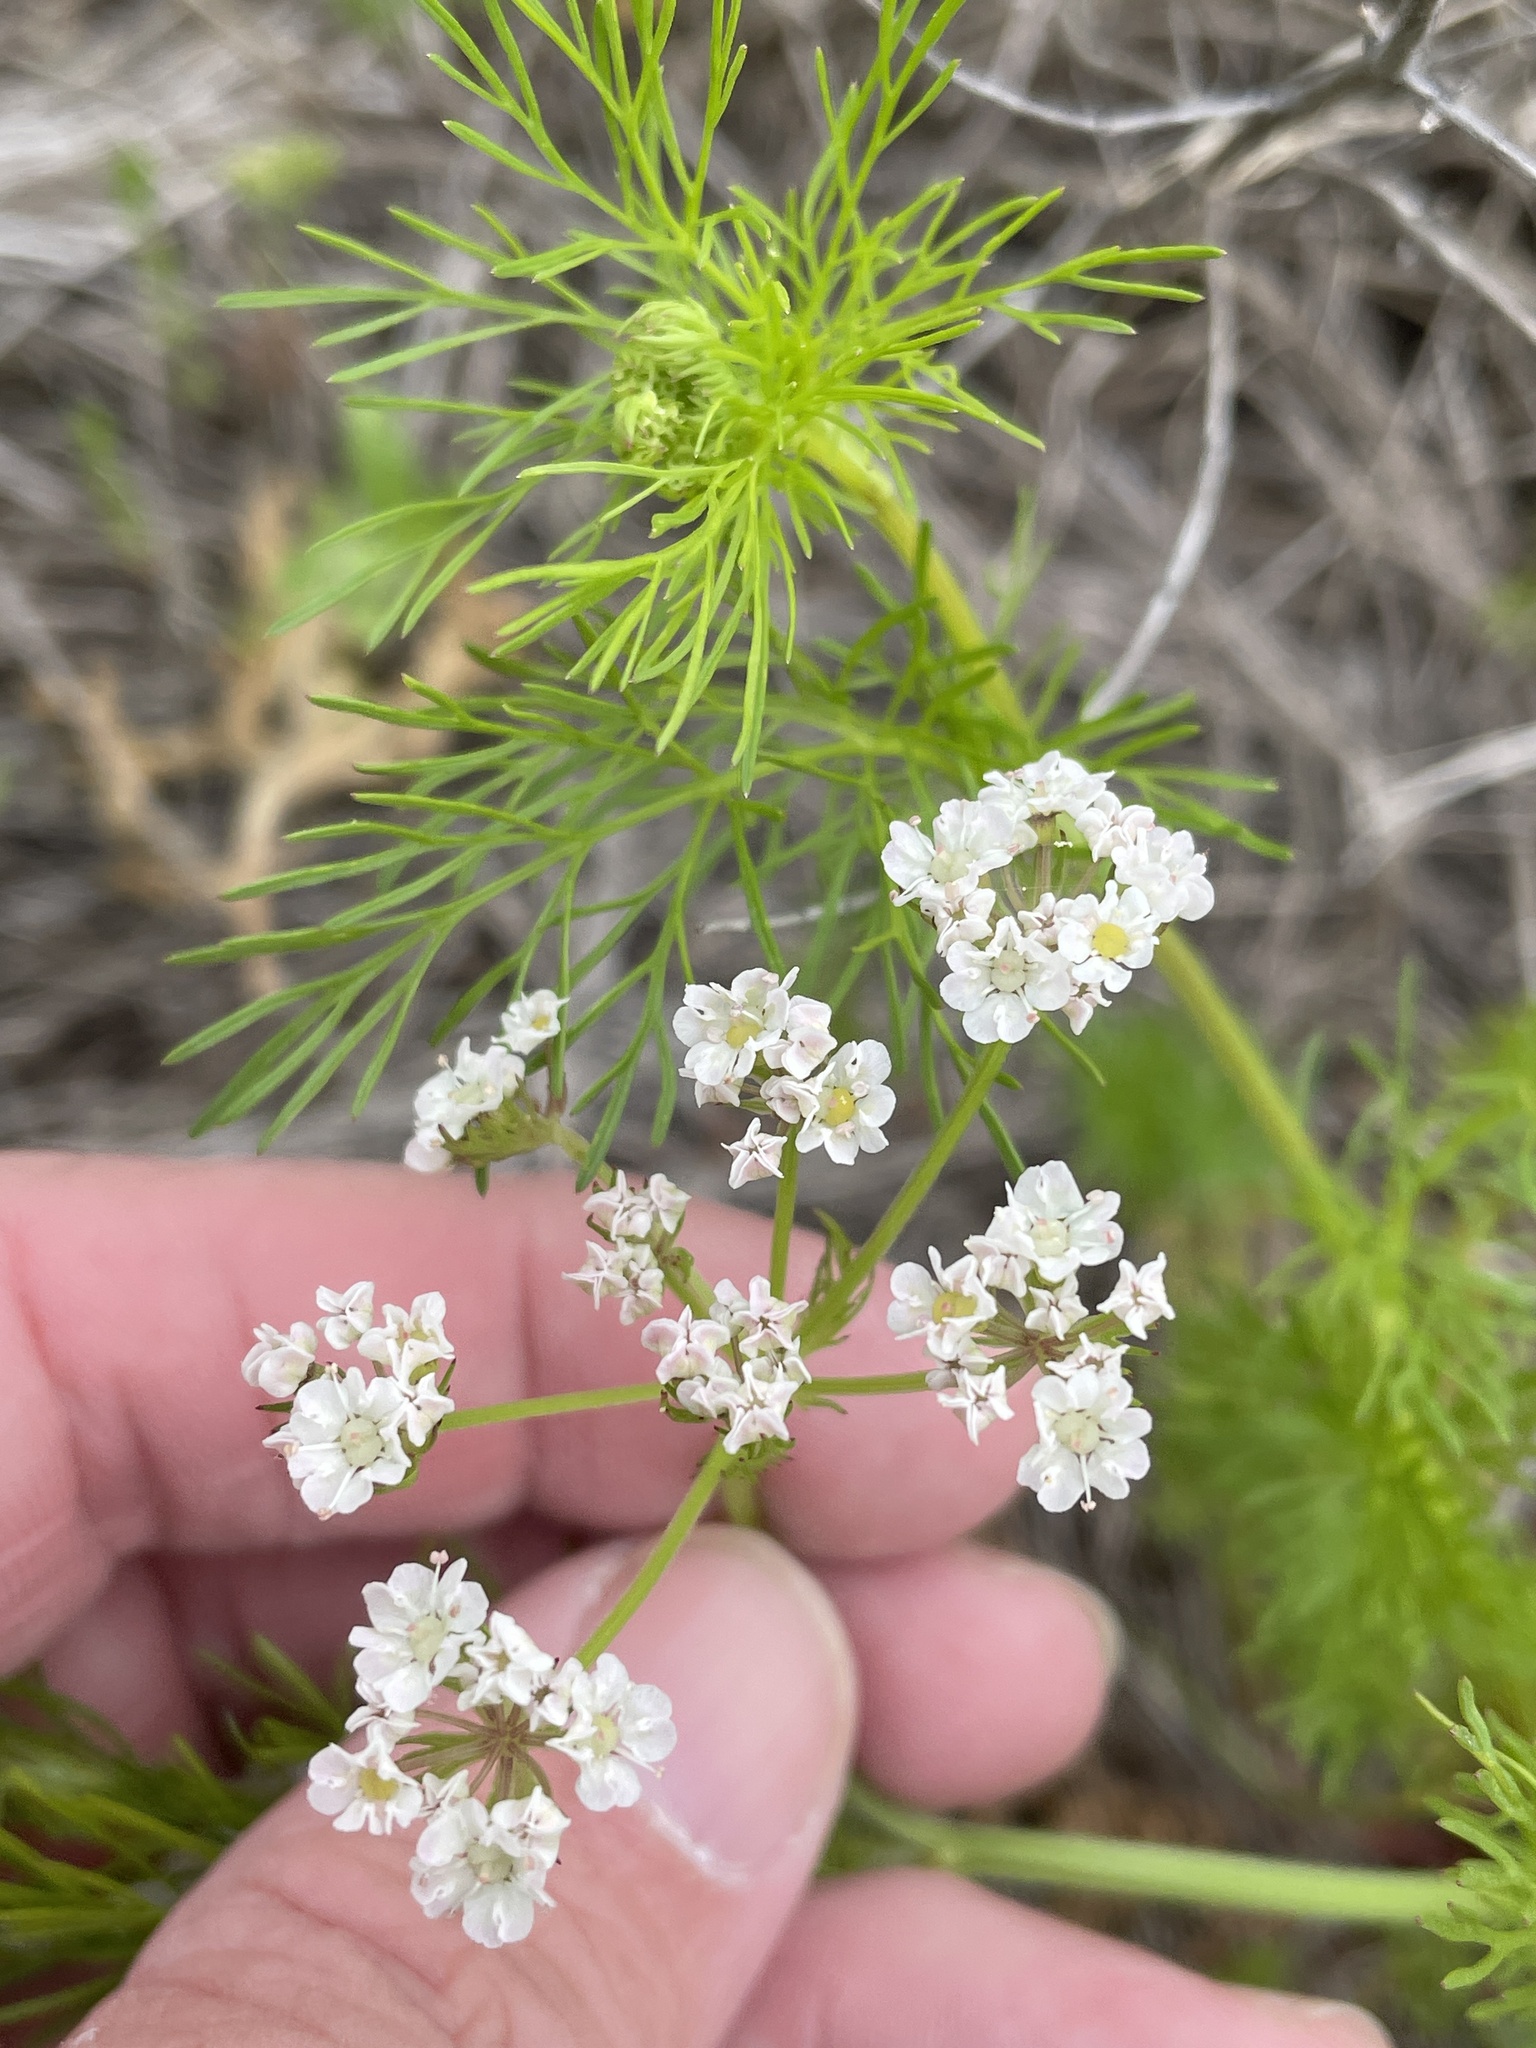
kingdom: Plantae
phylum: Tracheophyta
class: Magnoliopsida
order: Apiales
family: Apiaceae
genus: Atrema
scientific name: Atrema americanum
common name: Prairie-bishop
